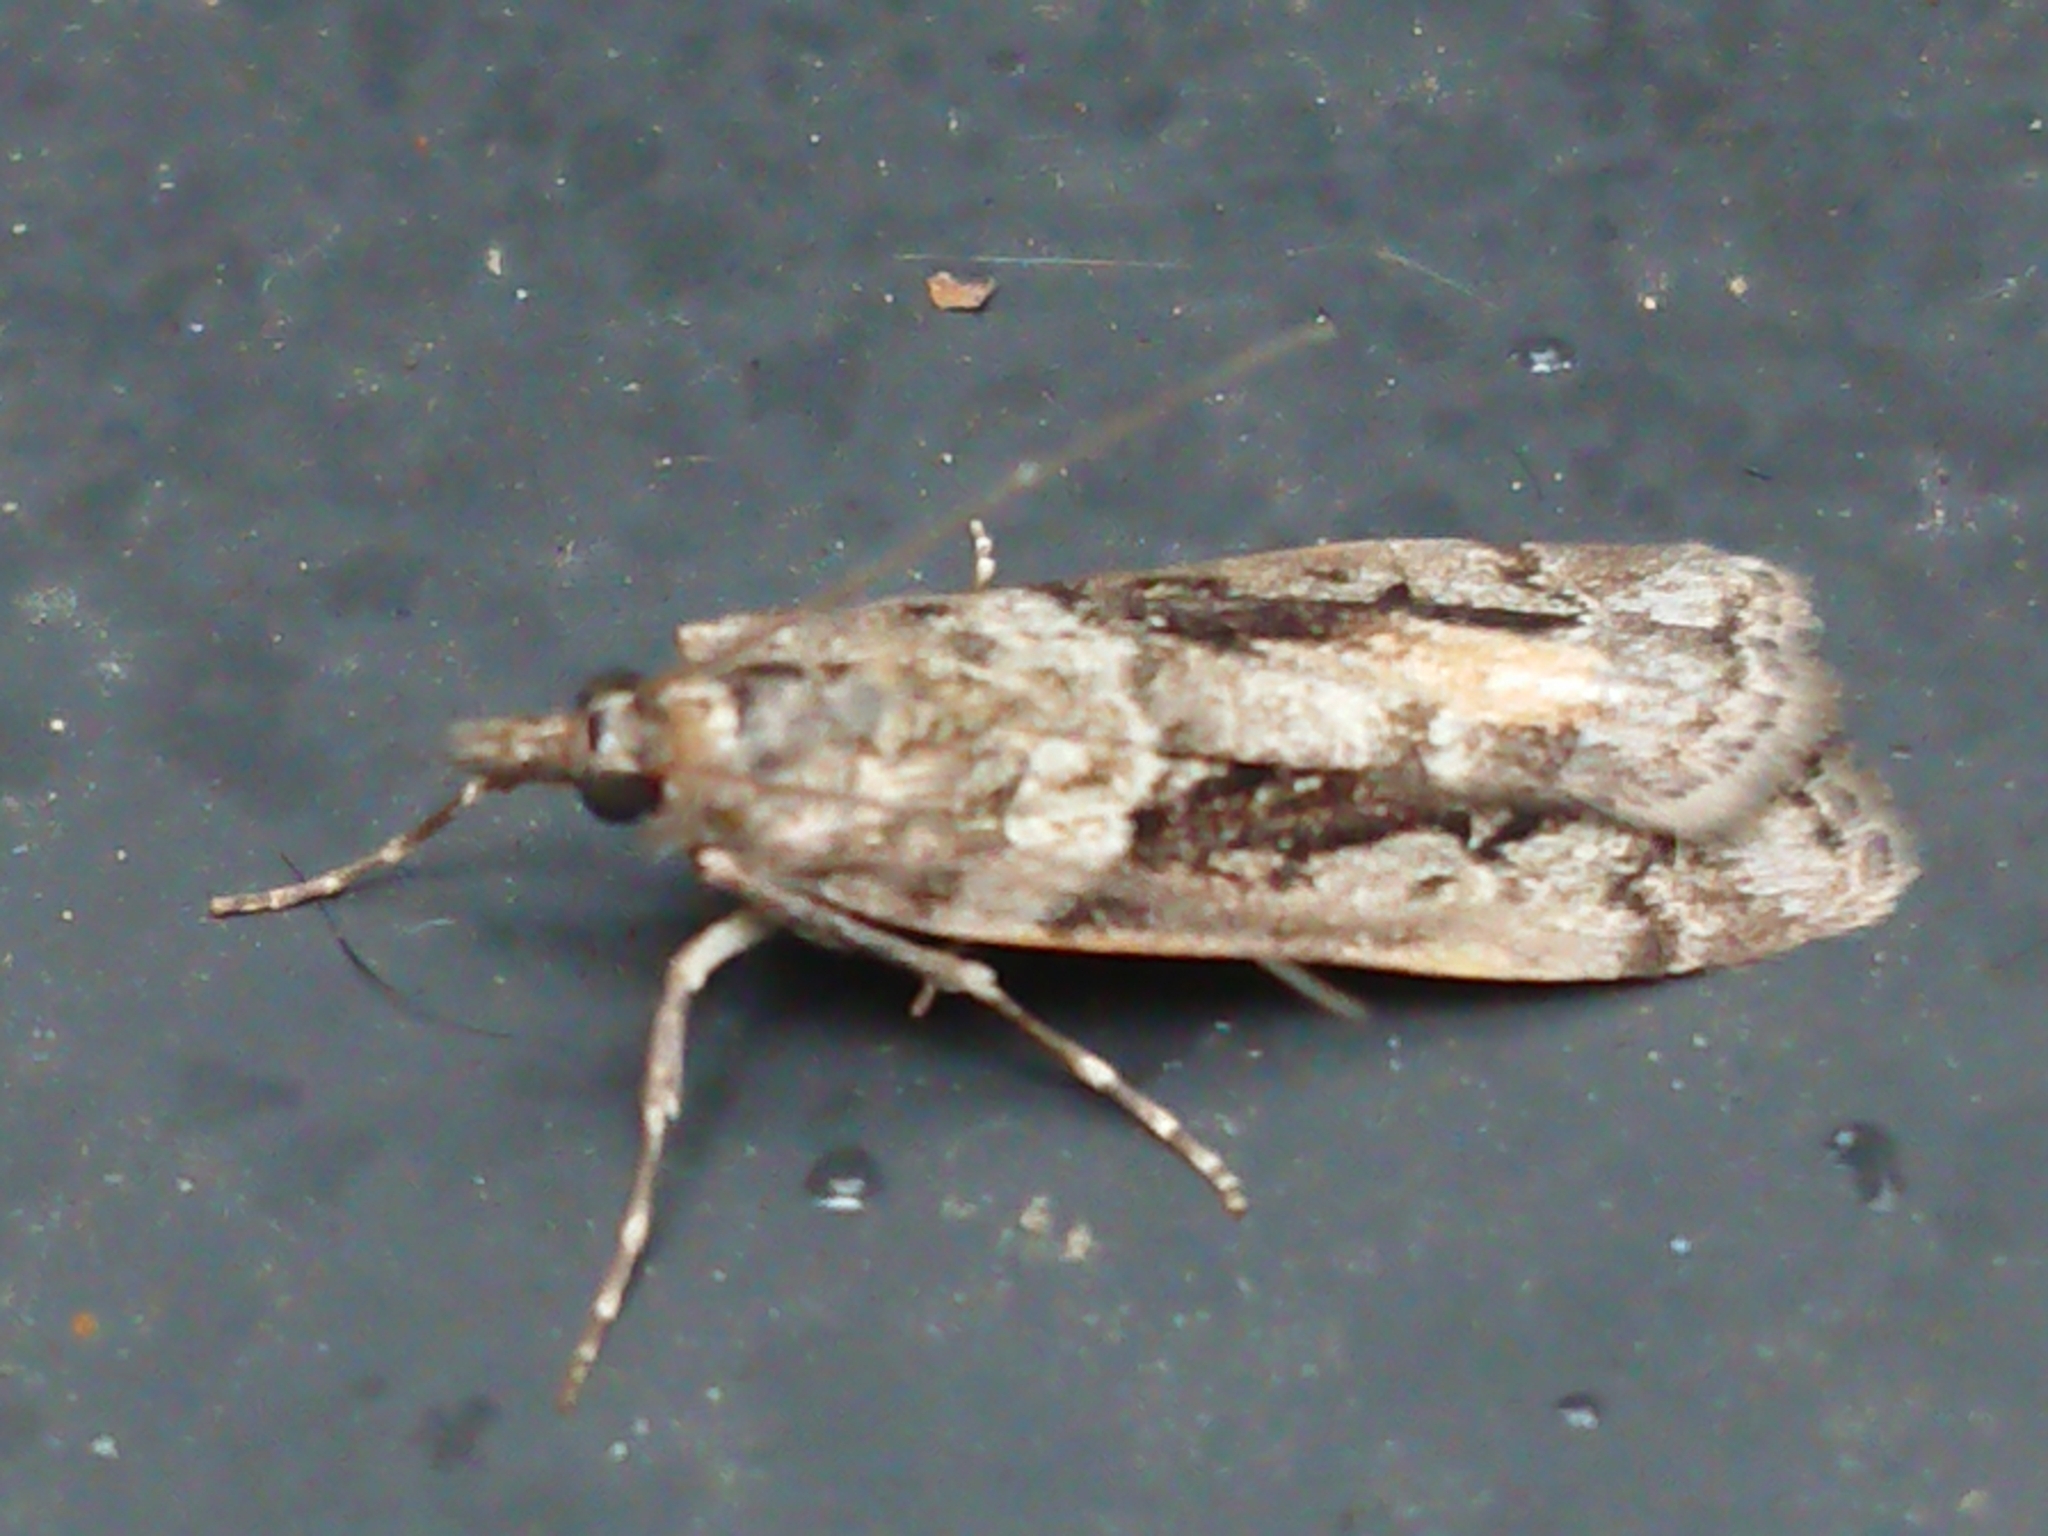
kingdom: Animalia
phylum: Arthropoda
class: Insecta
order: Lepidoptera
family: Crambidae
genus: Eudonia
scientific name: Eudonia submarginalis
